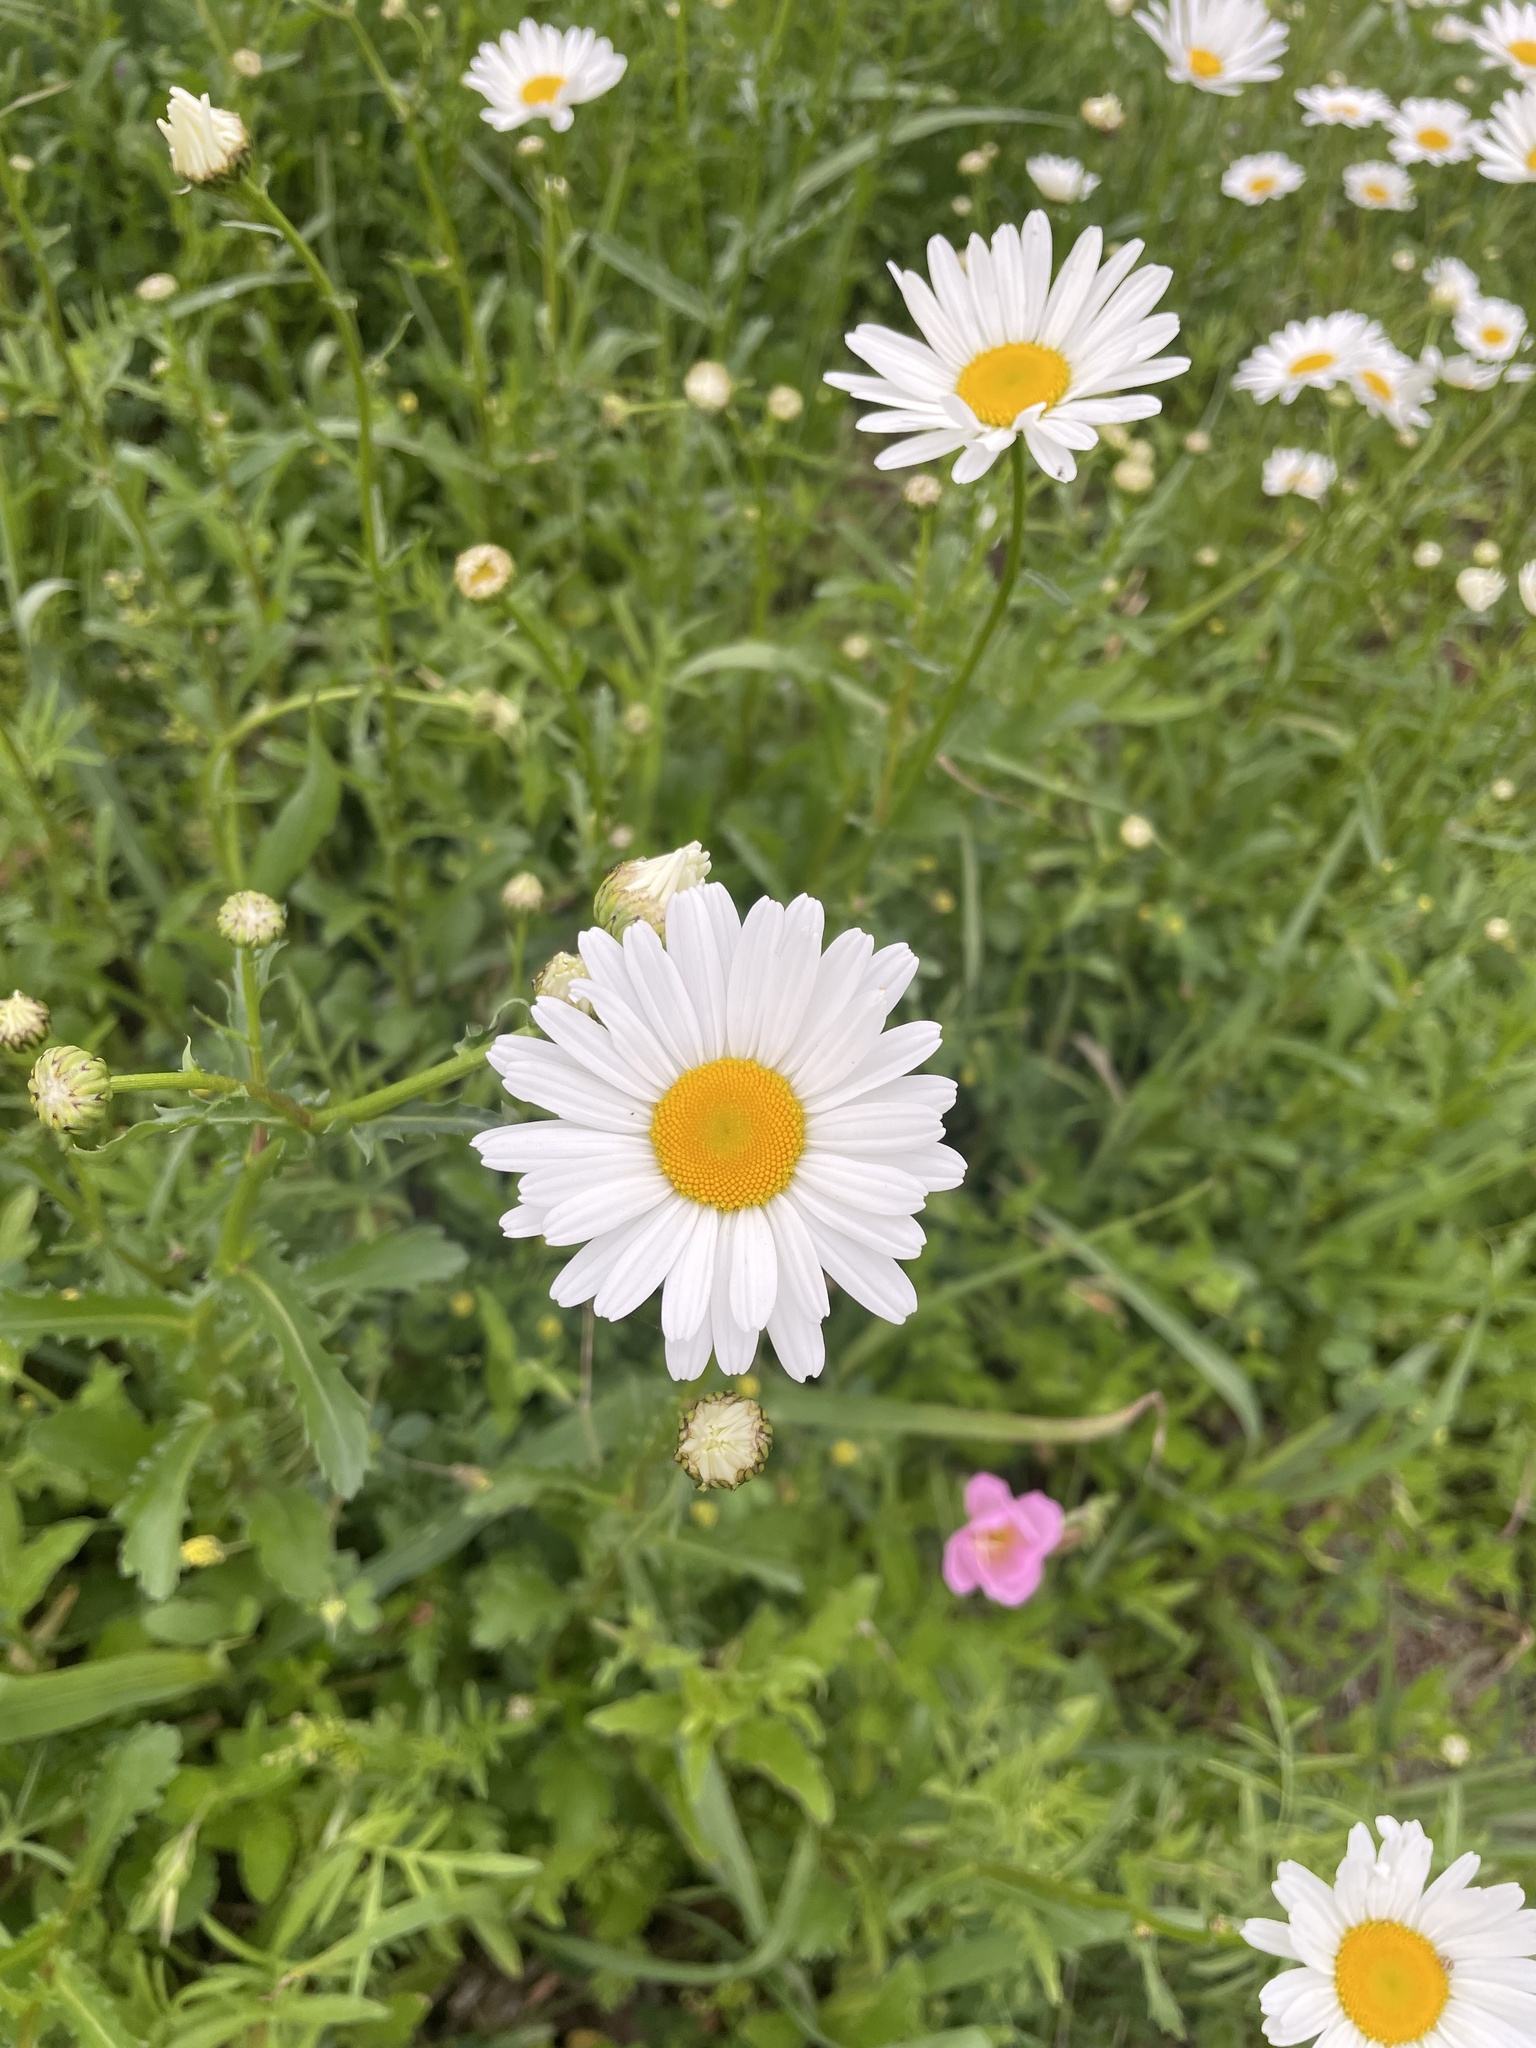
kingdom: Plantae
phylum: Tracheophyta
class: Magnoliopsida
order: Asterales
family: Asteraceae
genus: Leucanthemum
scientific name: Leucanthemum vulgare
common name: Oxeye daisy
